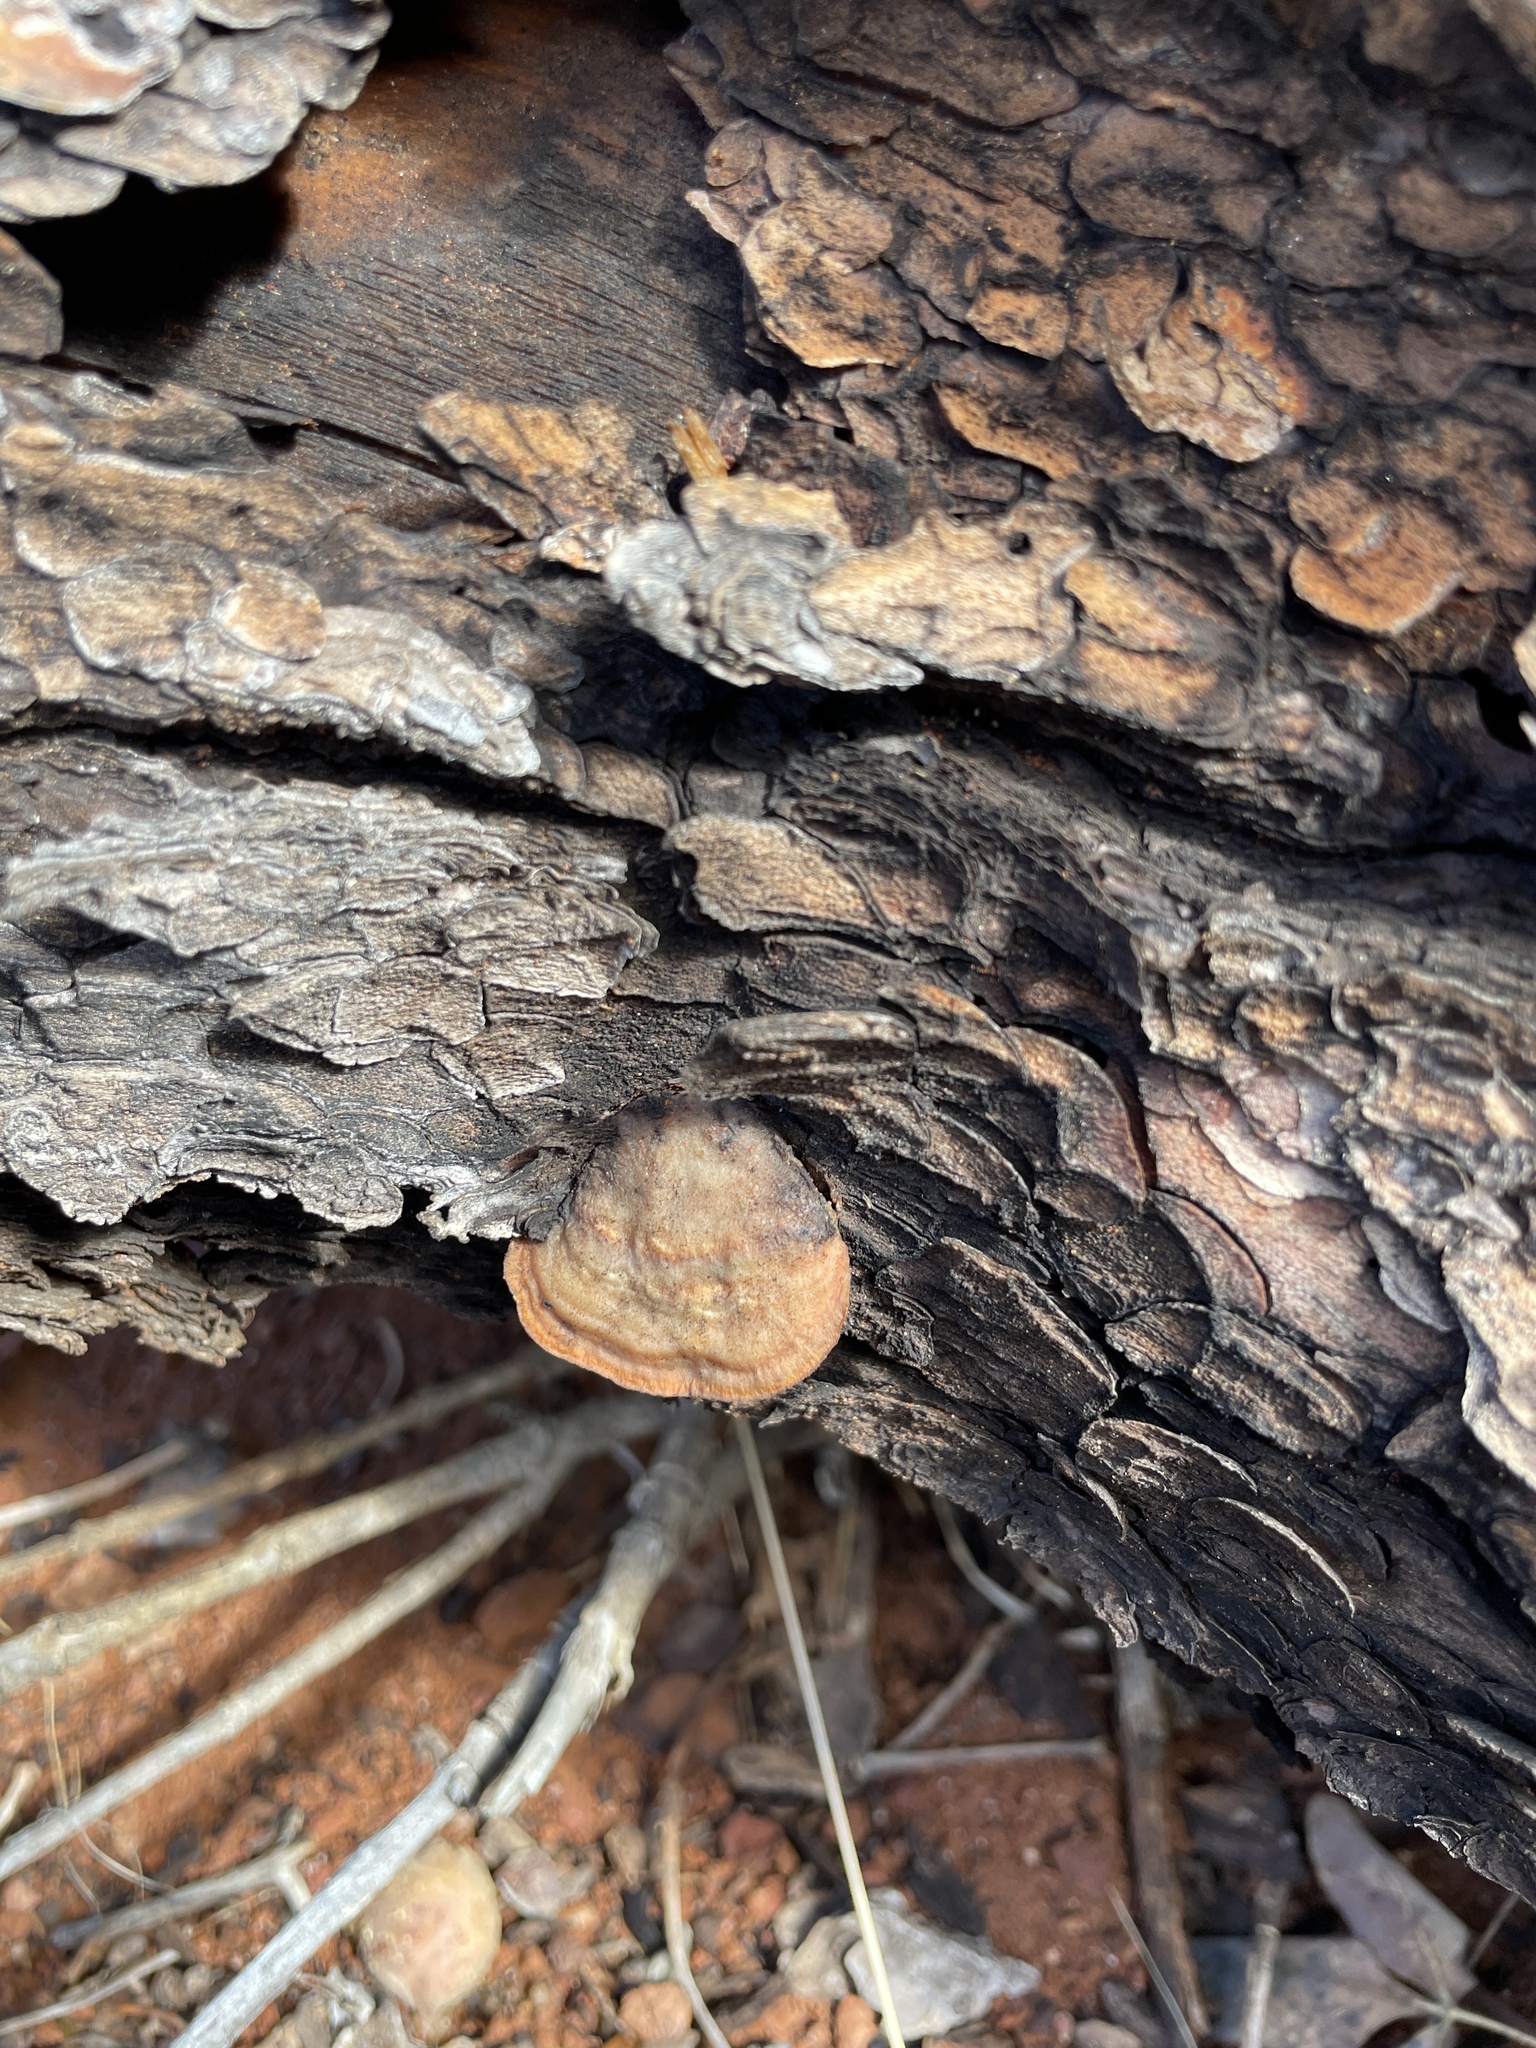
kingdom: Fungi
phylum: Basidiomycota
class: Agaricomycetes
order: Polyporales
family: Polyporaceae
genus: Trametes
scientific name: Trametes cinnabarina
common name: Northern cinnabar polypore
